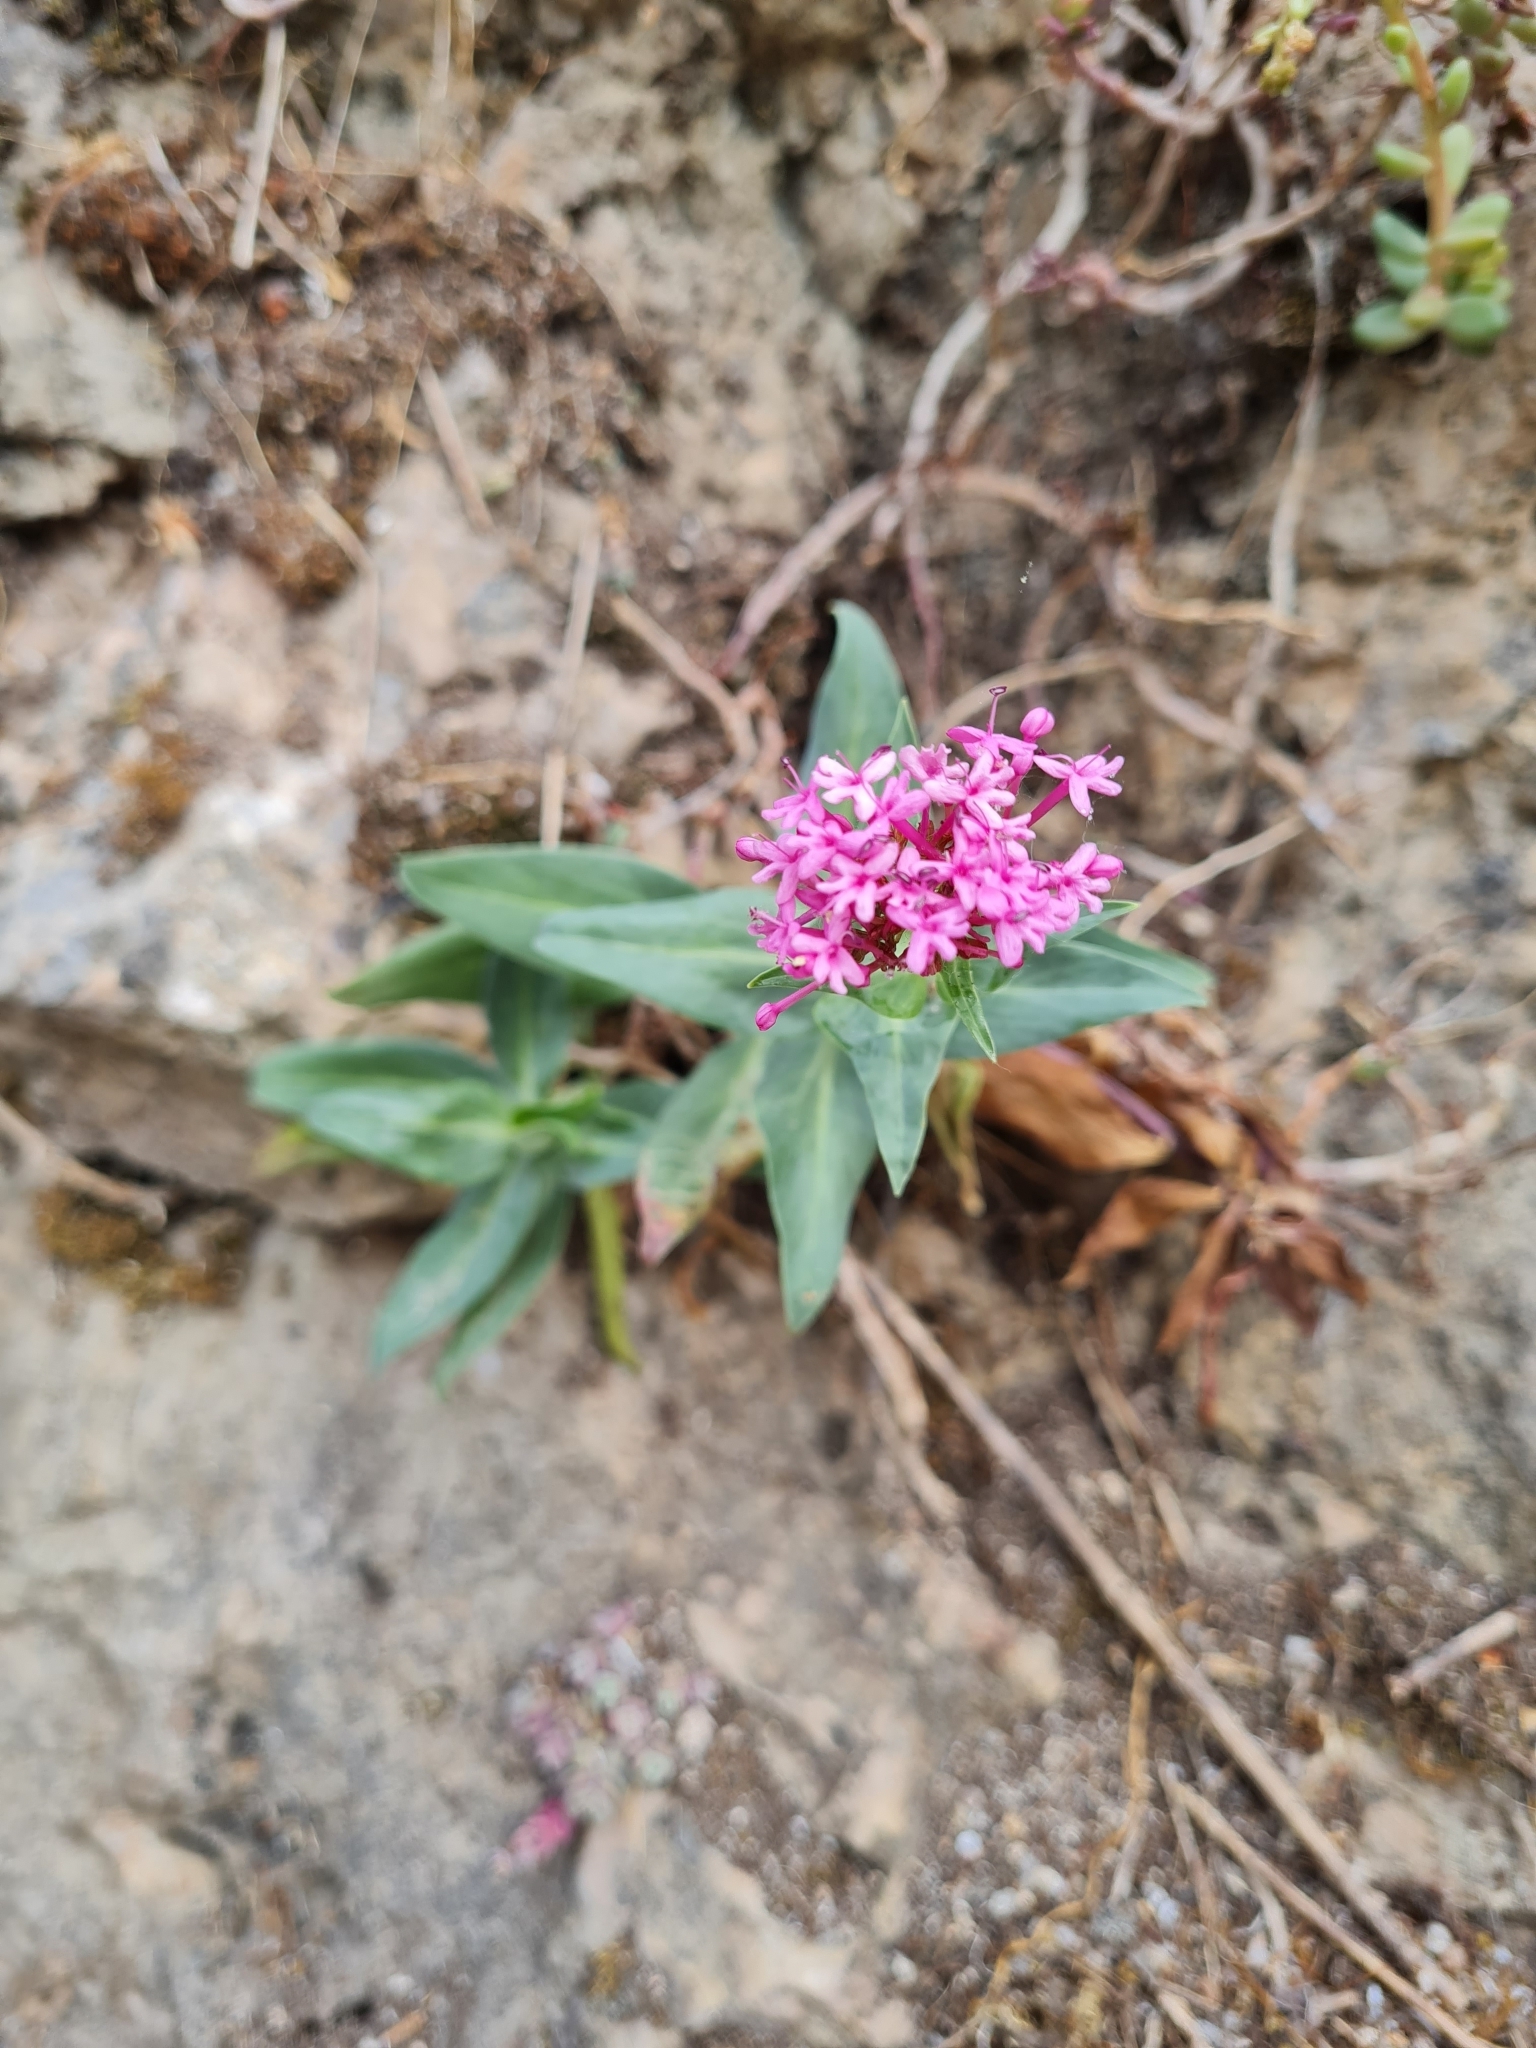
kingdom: Plantae
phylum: Tracheophyta
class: Magnoliopsida
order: Dipsacales
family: Caprifoliaceae
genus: Centranthus
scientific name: Centranthus ruber
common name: Red valerian
